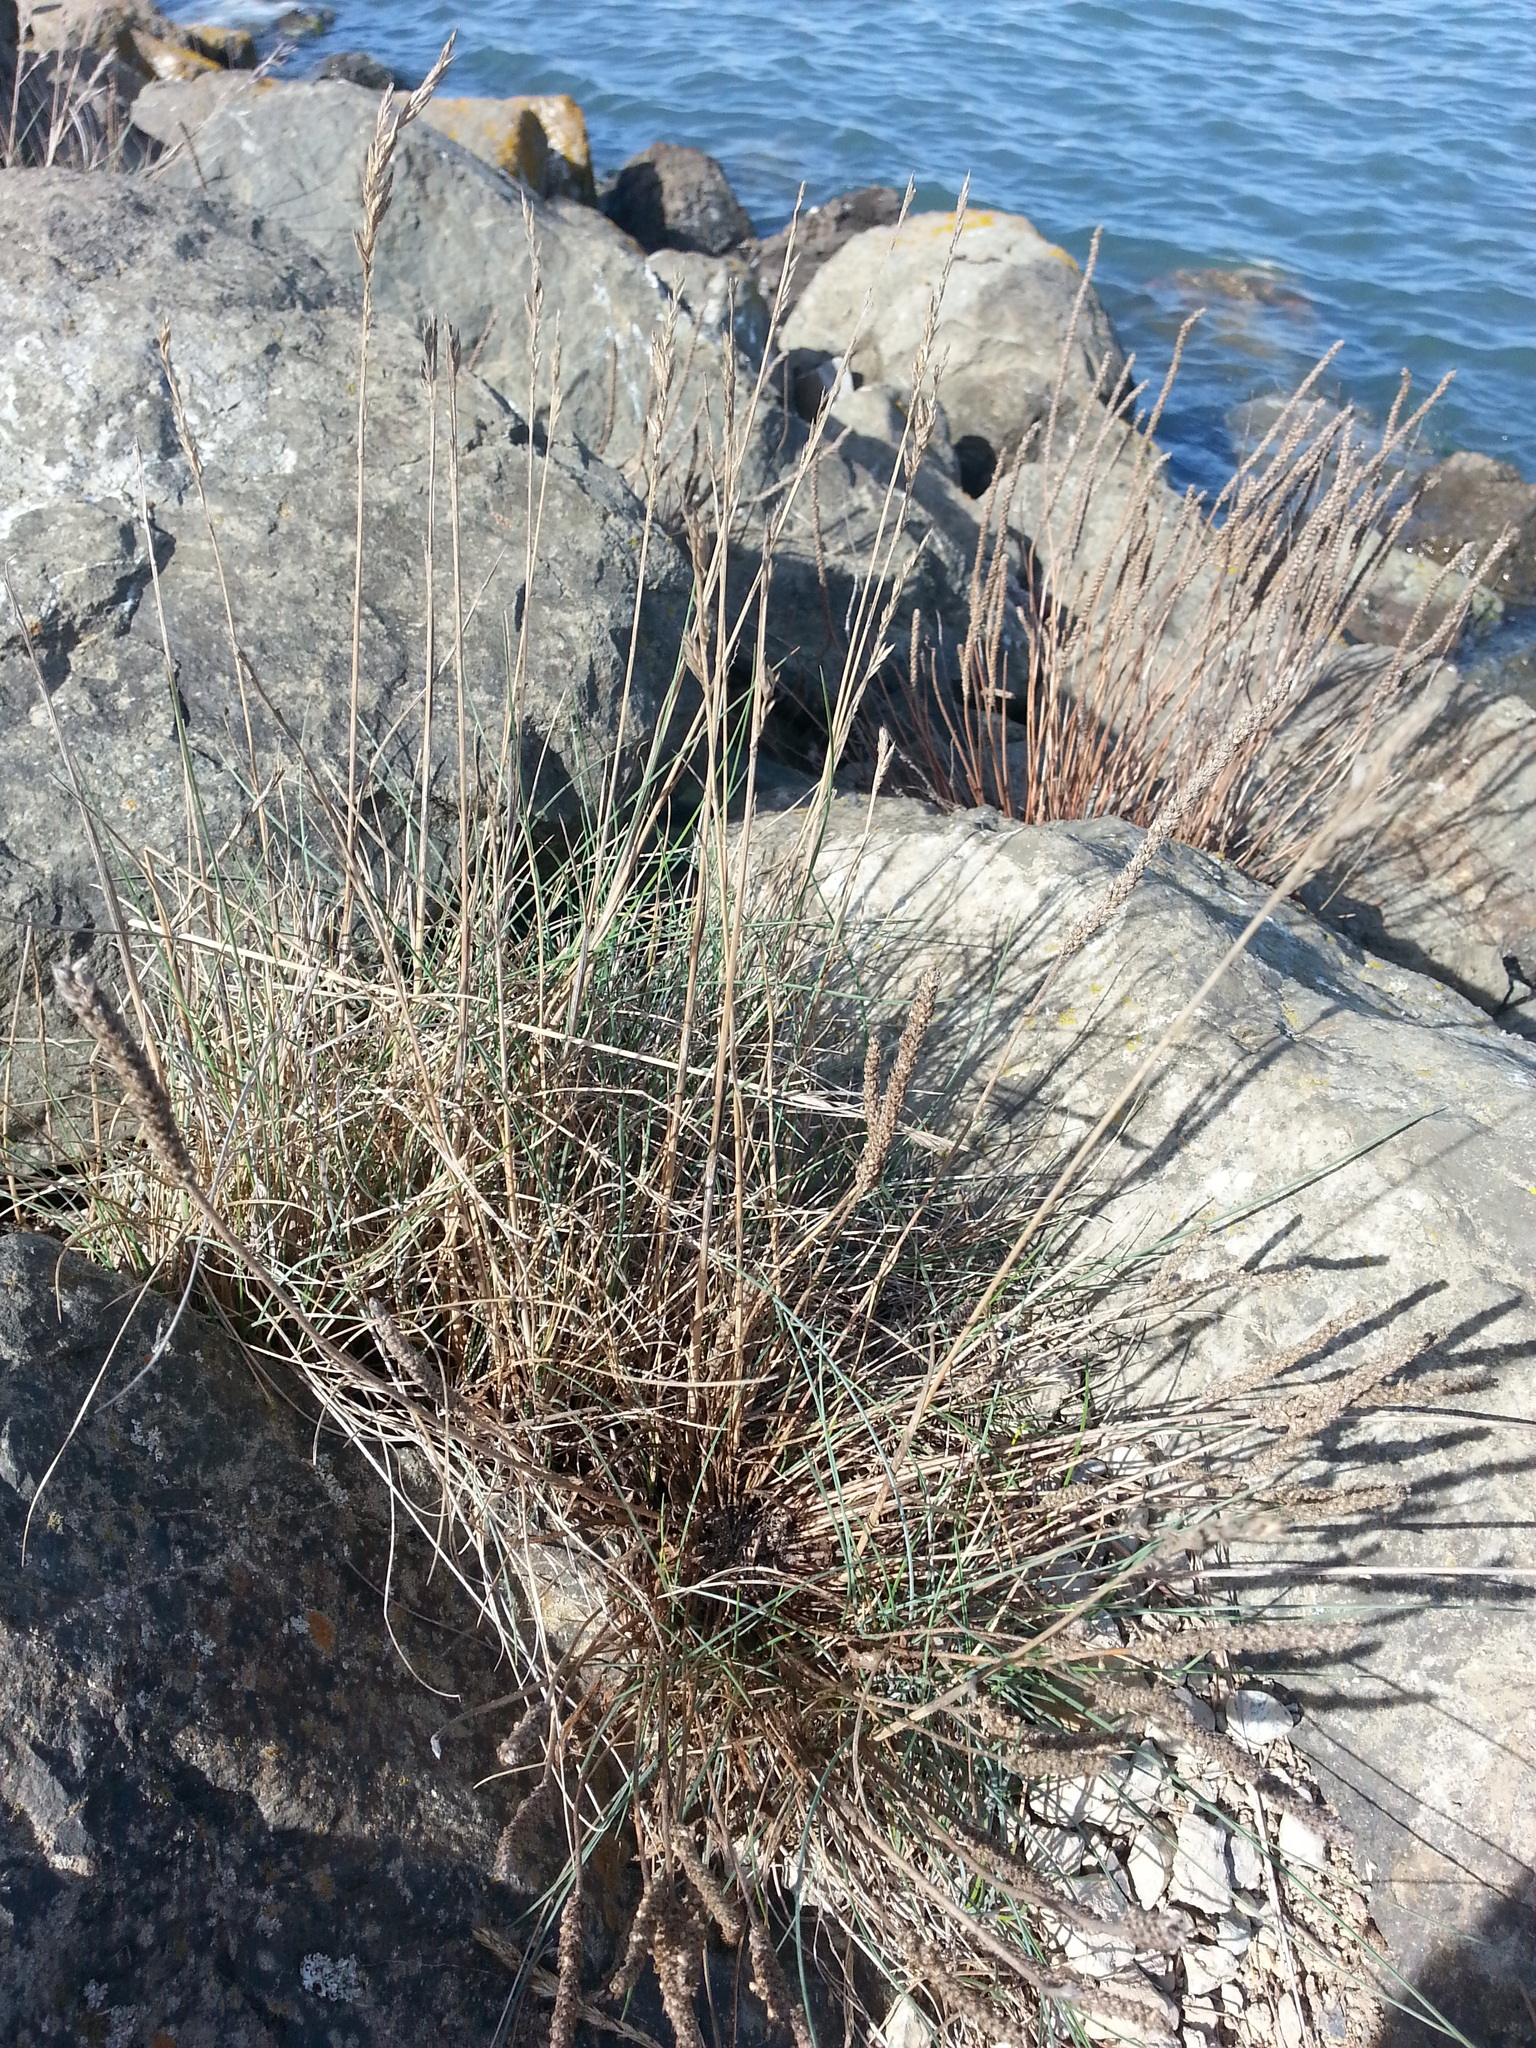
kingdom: Plantae
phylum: Tracheophyta
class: Liliopsida
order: Poales
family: Poaceae
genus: Festuca
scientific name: Festuca rubra
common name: Red fescue
